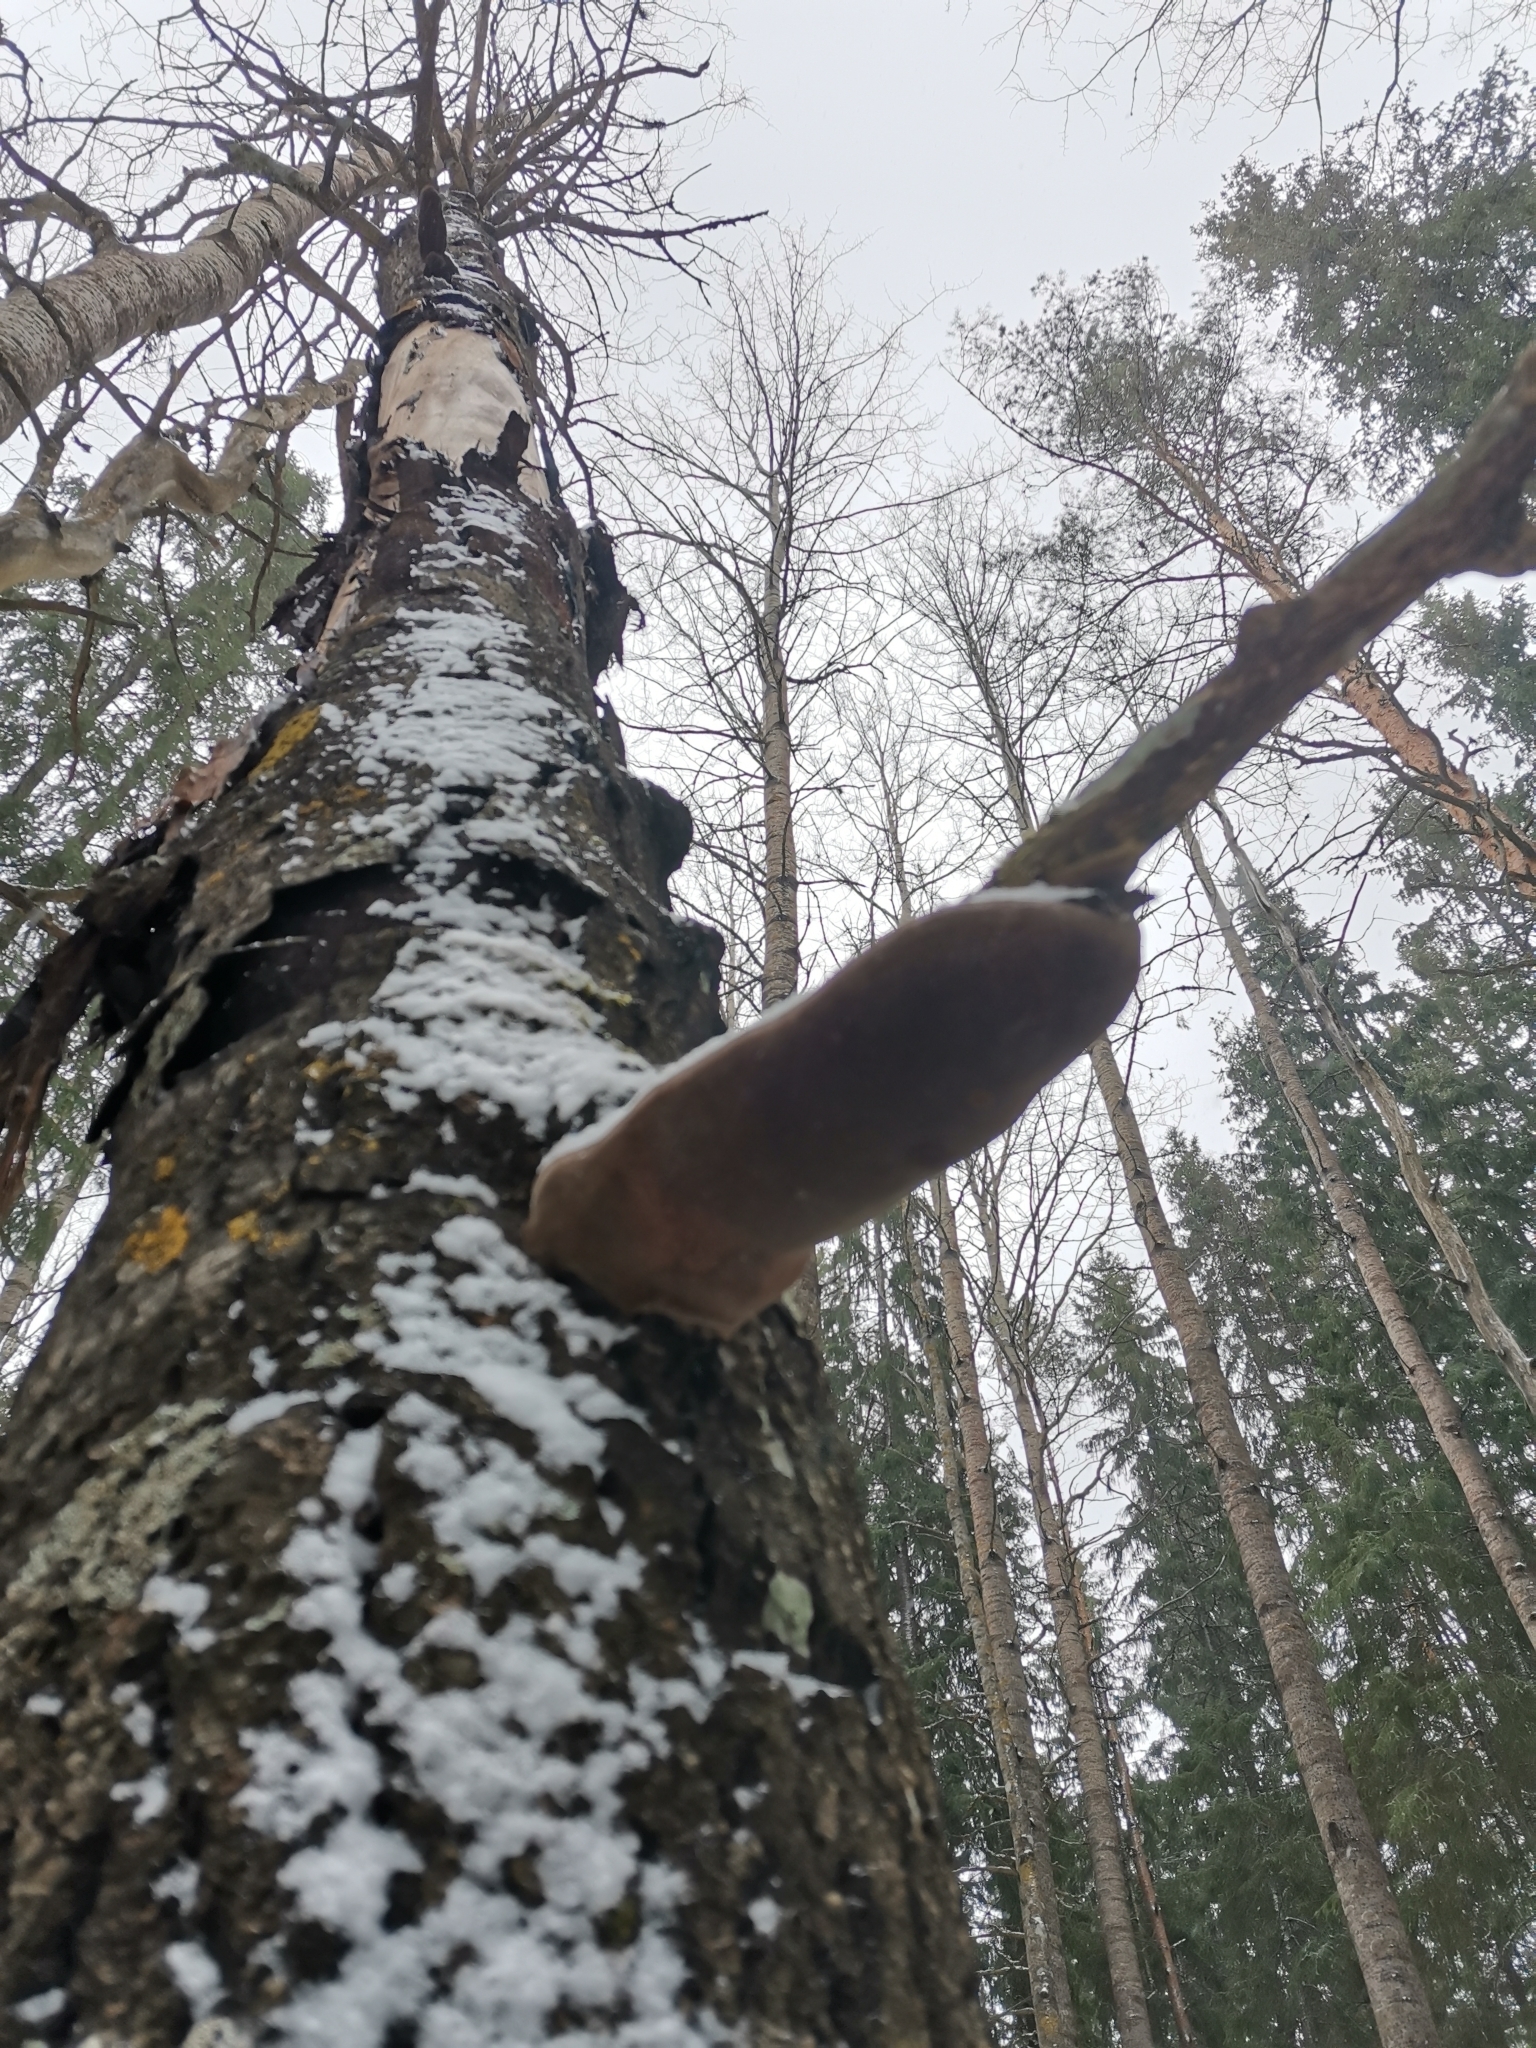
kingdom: Fungi
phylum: Basidiomycota
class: Agaricomycetes
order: Hymenochaetales
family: Hymenochaetaceae
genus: Phellinus
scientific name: Phellinus tremulae
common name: Aspen bracket
